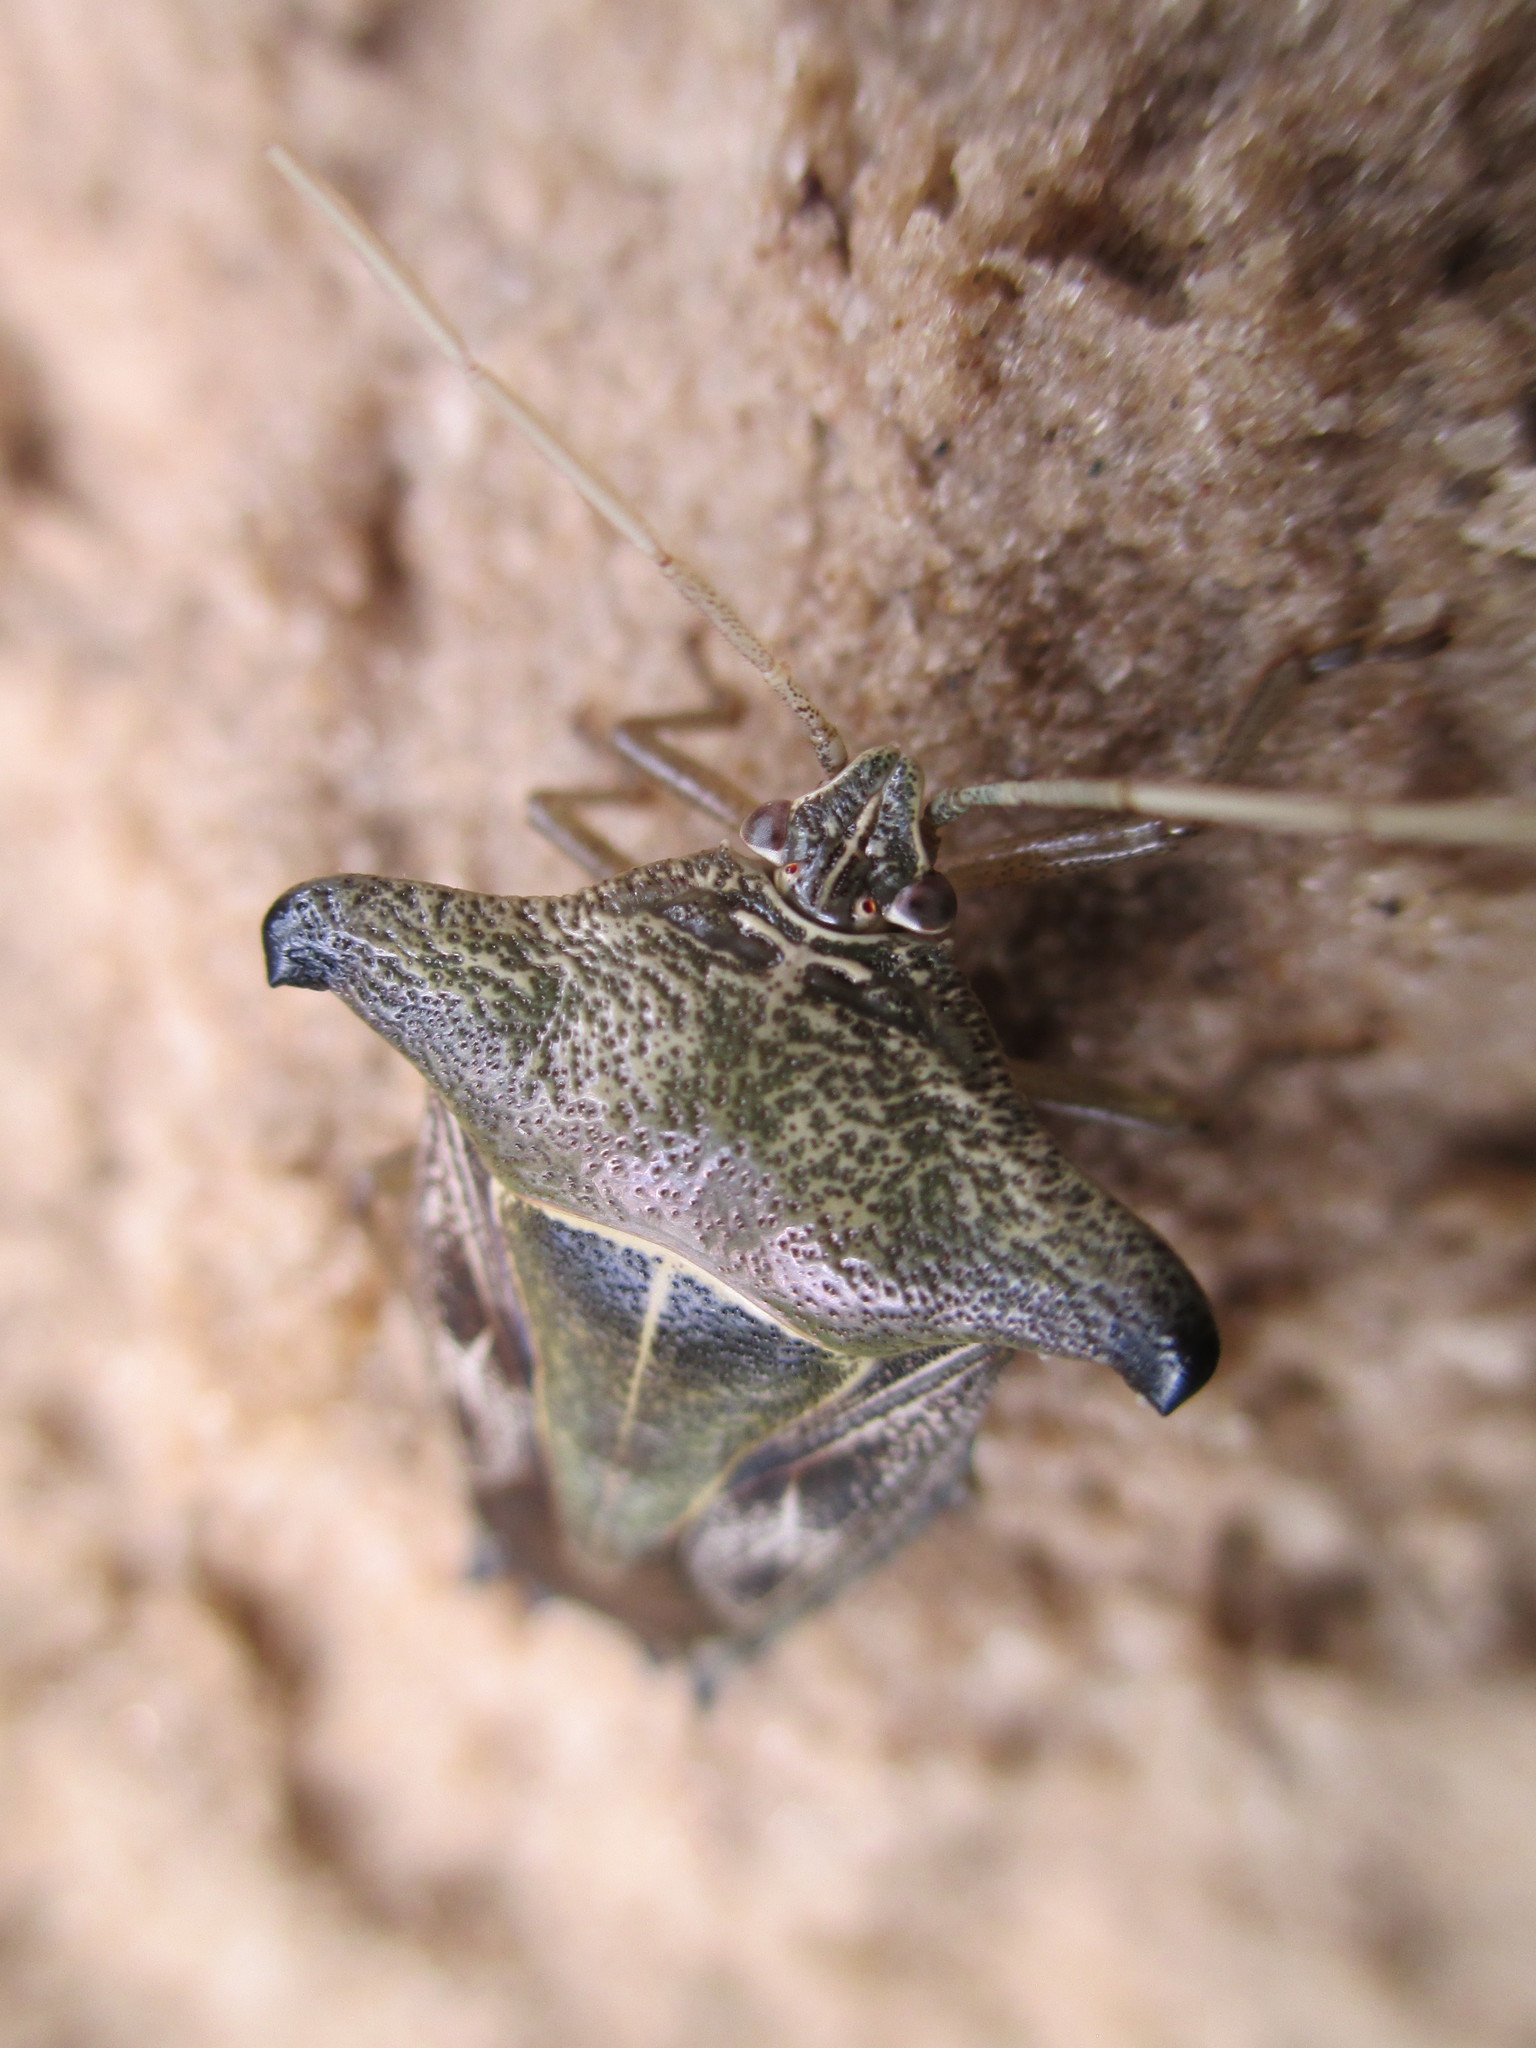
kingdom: Animalia
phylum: Arthropoda
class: Insecta
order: Hemiptera
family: Pentatomidae
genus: Edessa
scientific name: Edessa
